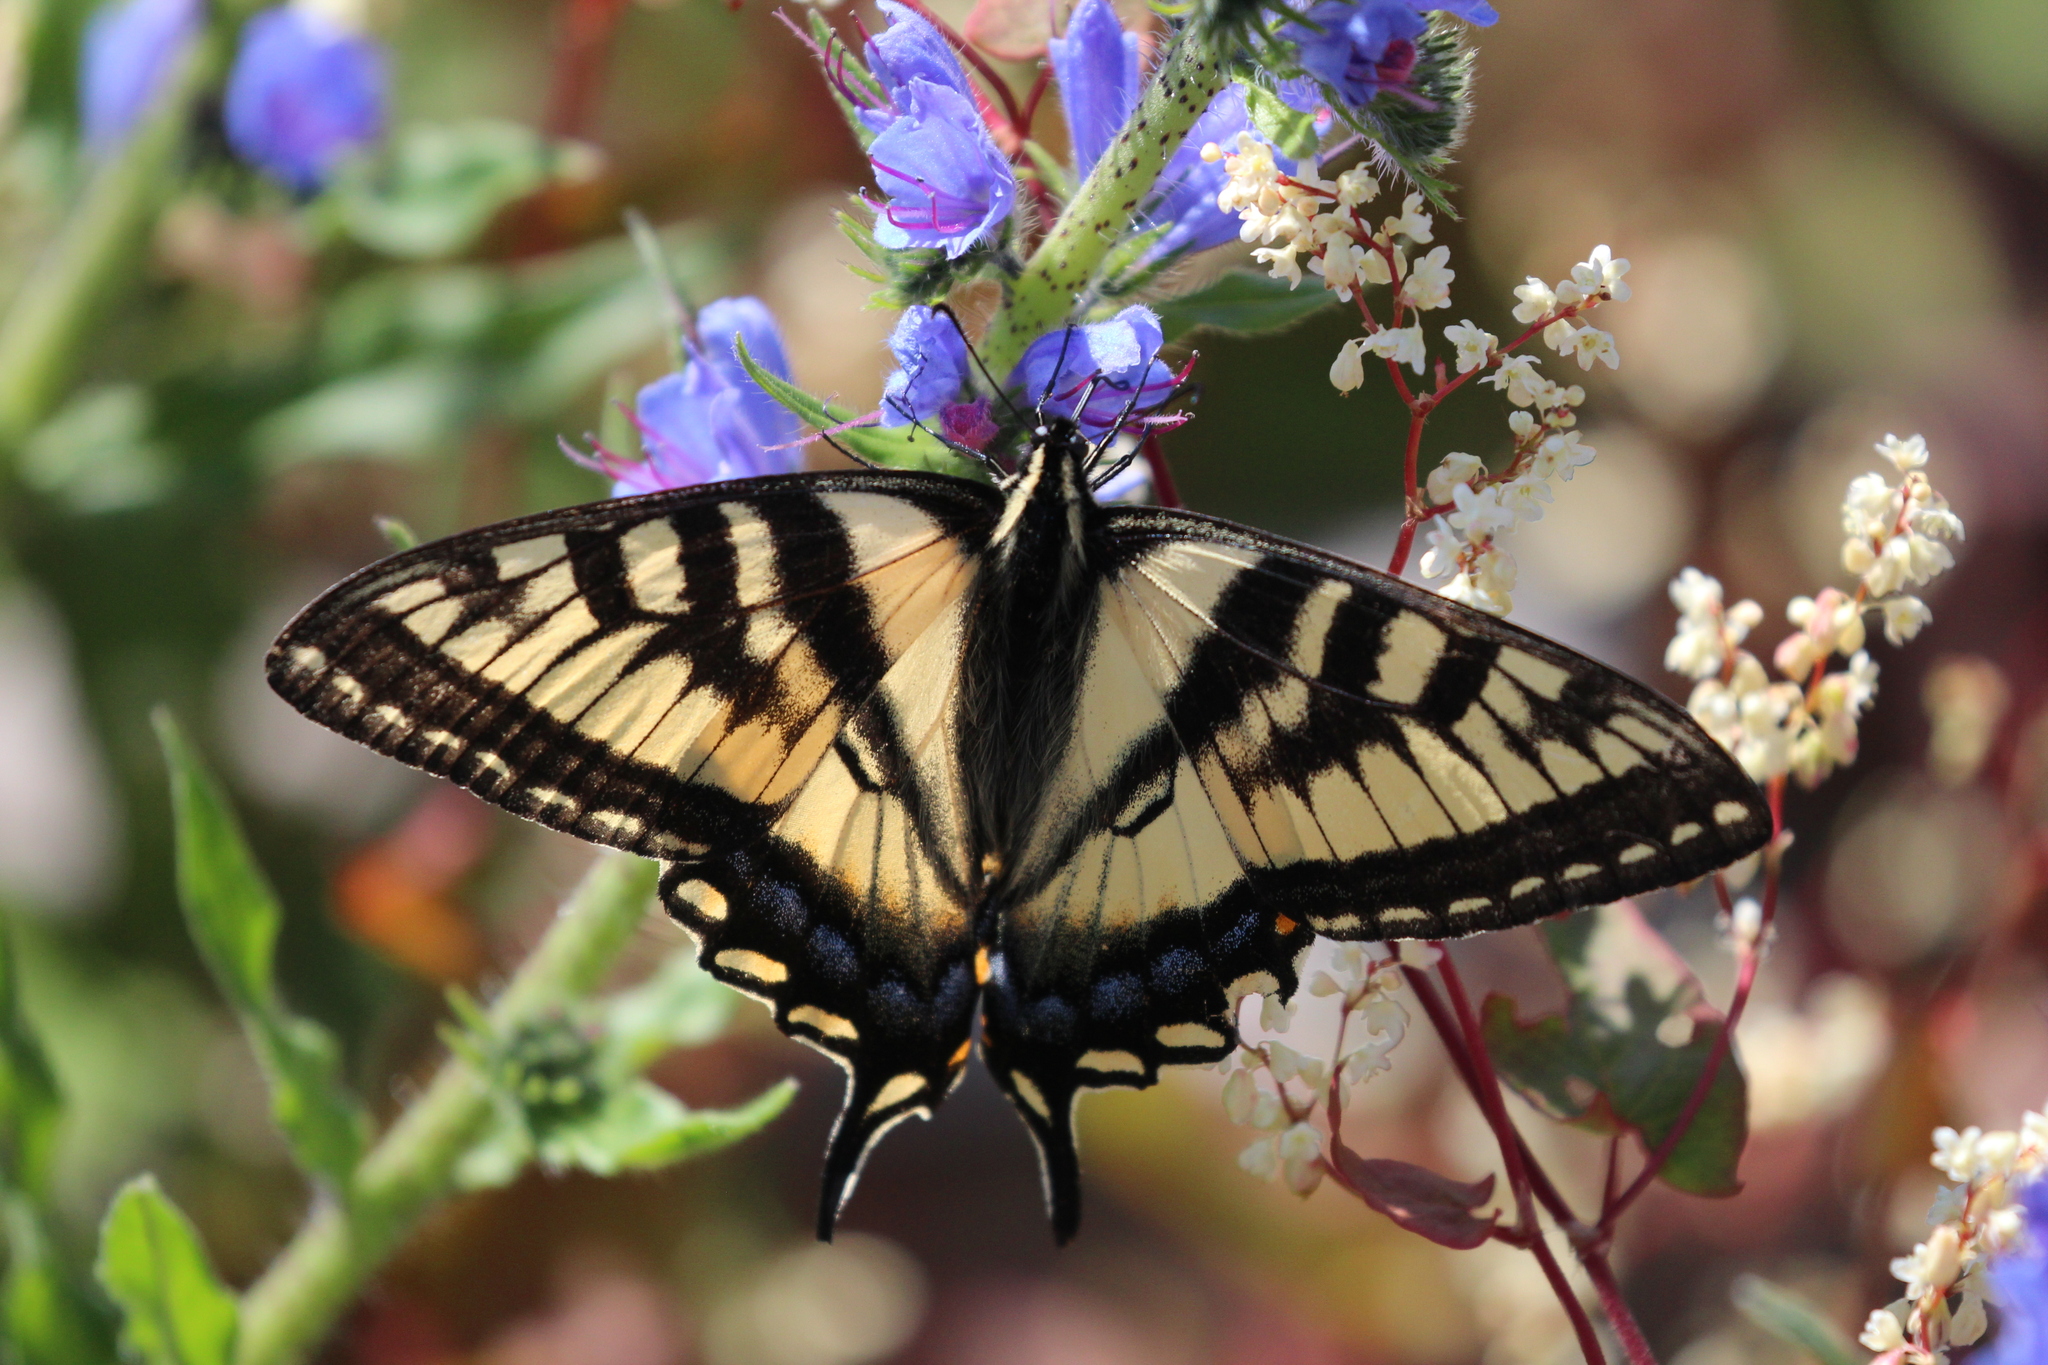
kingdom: Animalia
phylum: Arthropoda
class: Insecta
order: Lepidoptera
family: Papilionidae
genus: Papilio
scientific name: Papilio canadensis
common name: Canadian tiger swallowtail
